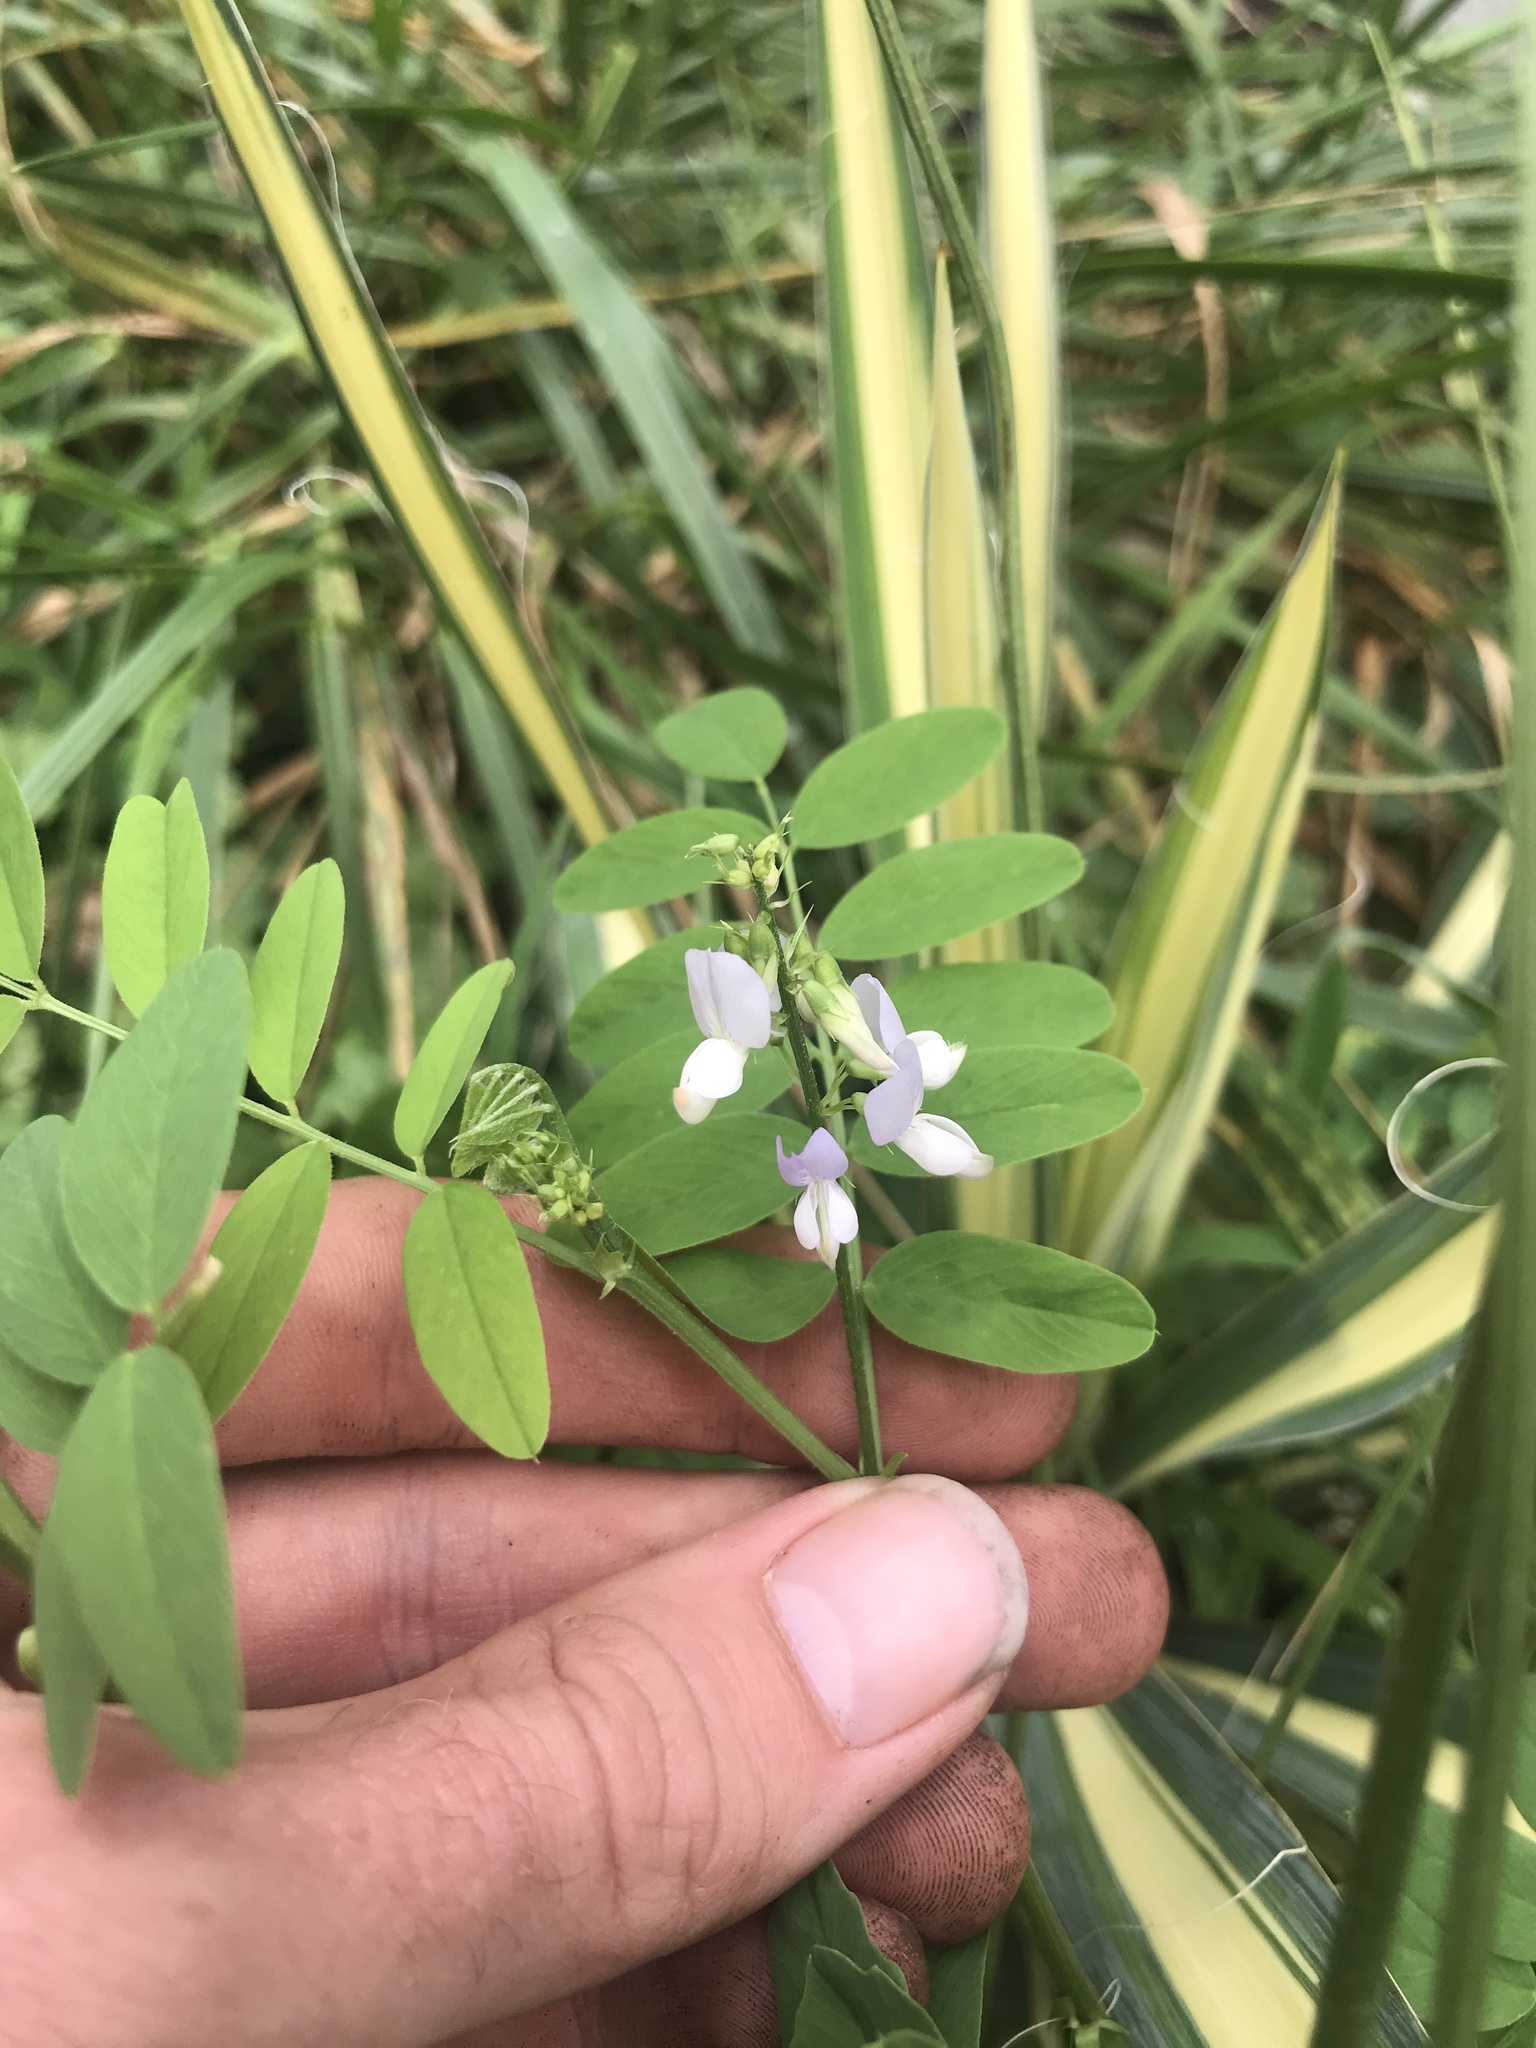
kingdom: Plantae
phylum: Tracheophyta
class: Magnoliopsida
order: Fabales
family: Fabaceae
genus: Galega
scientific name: Galega officinalis
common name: Goat's-rue
